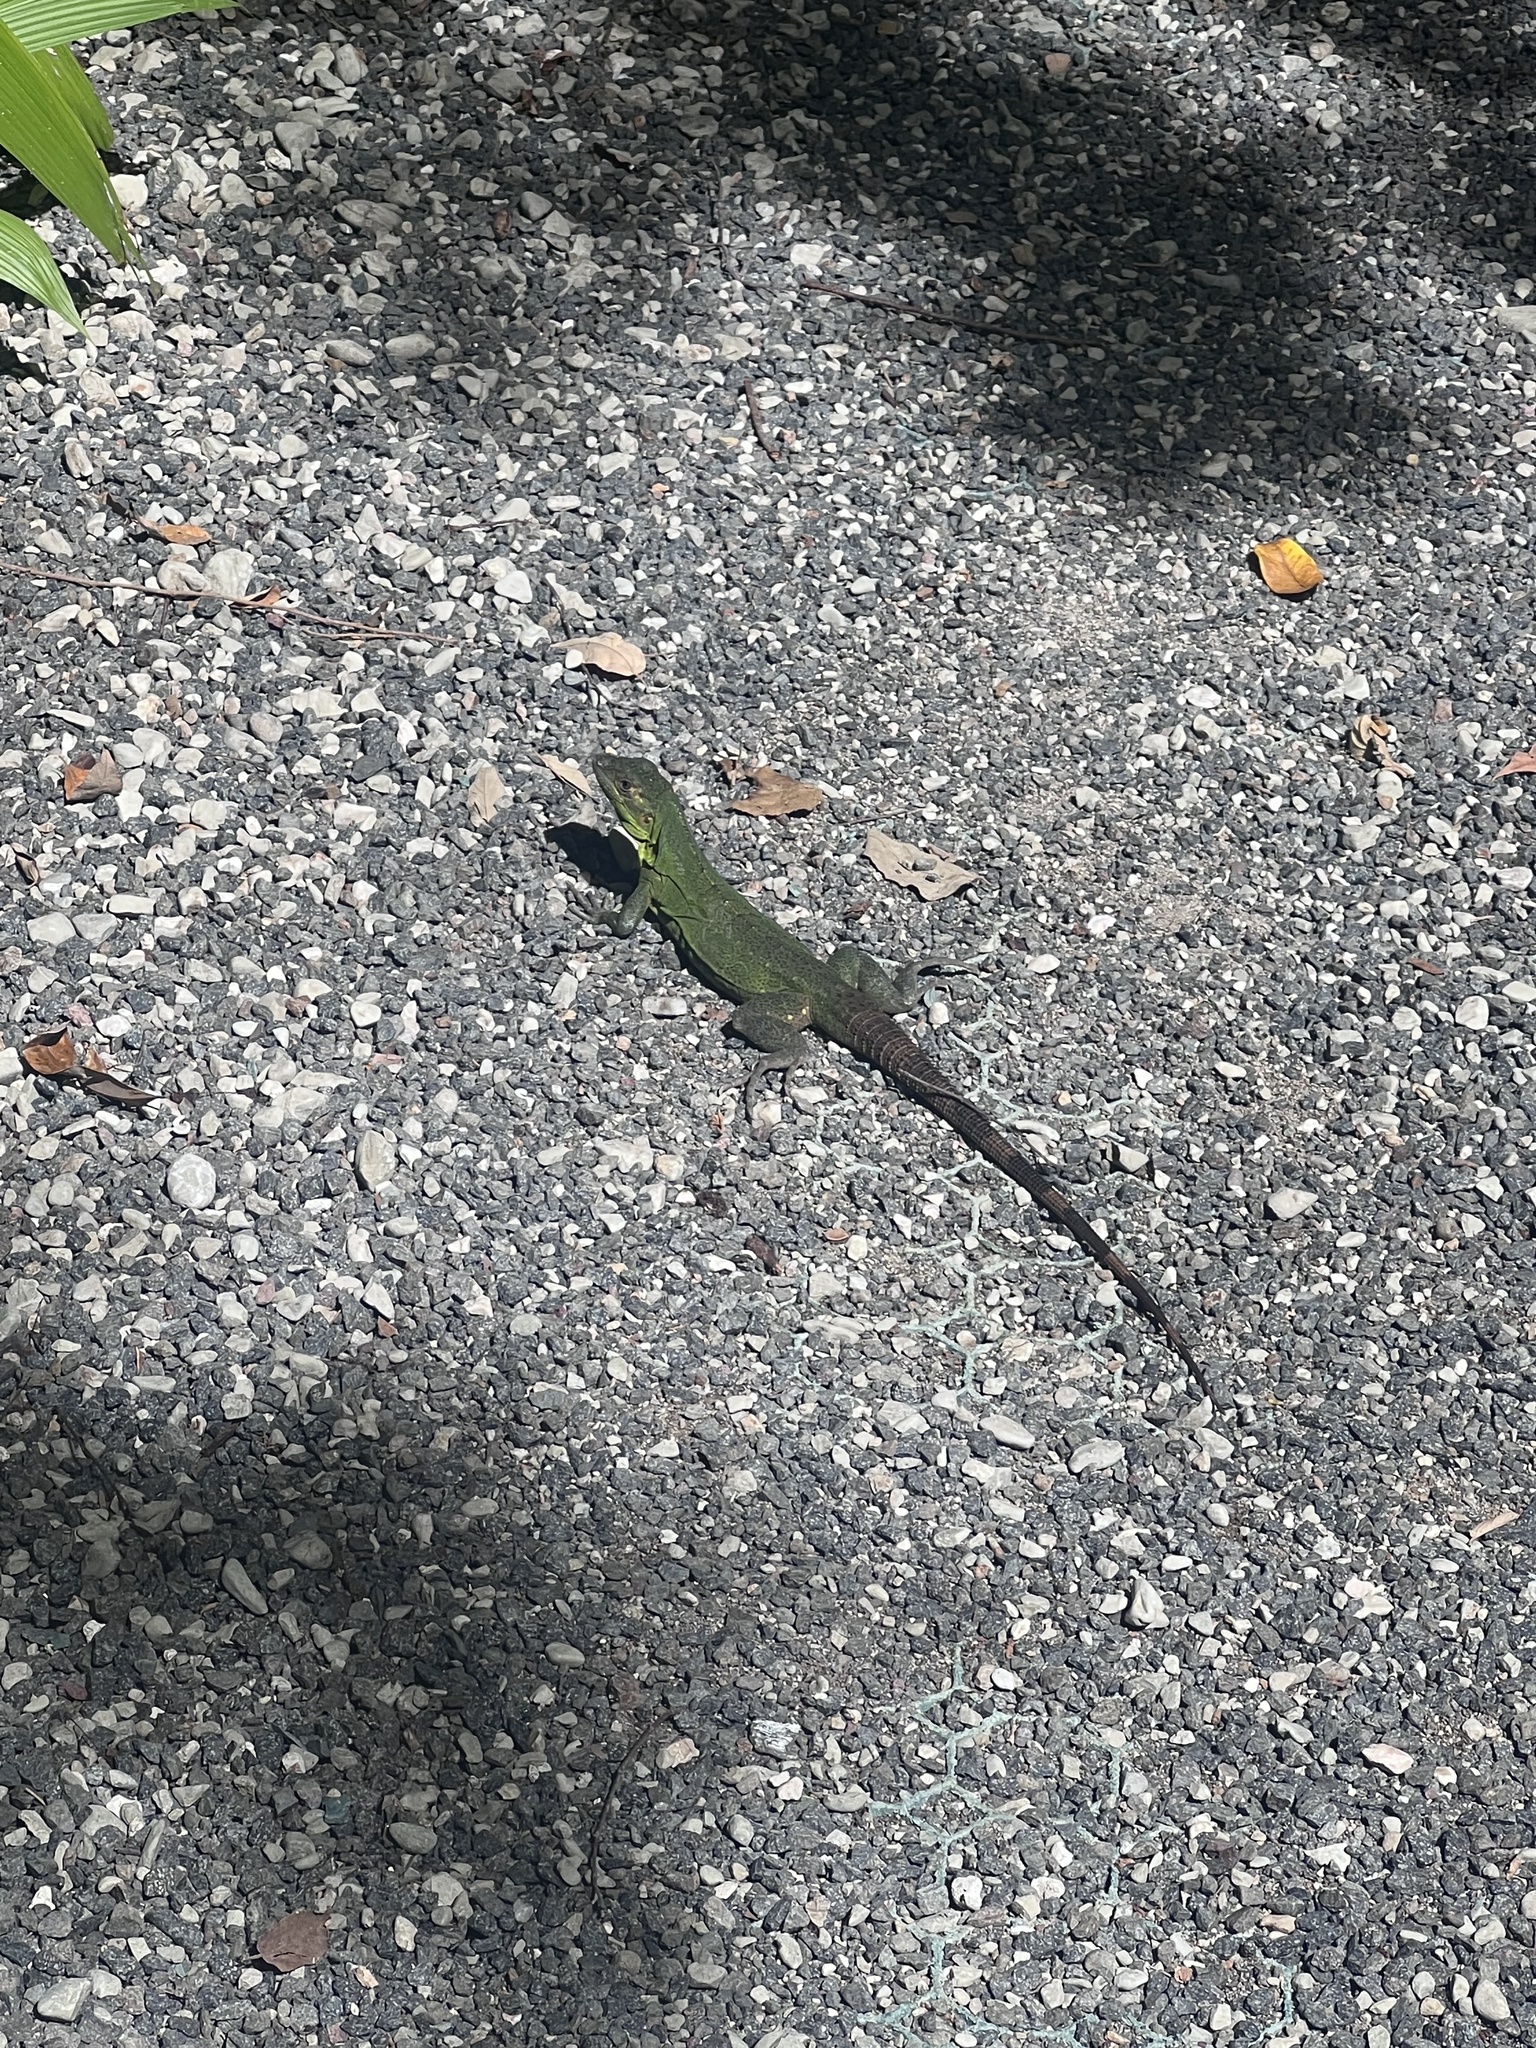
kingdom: Animalia
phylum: Chordata
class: Squamata
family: Iguanidae
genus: Ctenosaura
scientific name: Ctenosaura similis
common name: Black spiny-tailed iguana
